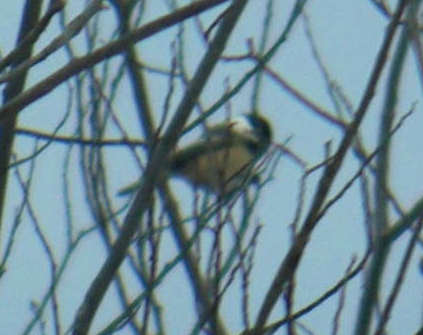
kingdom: Animalia
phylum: Chordata
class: Aves
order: Passeriformes
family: Paridae
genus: Poecile
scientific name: Poecile atricapillus
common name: Black-capped chickadee
